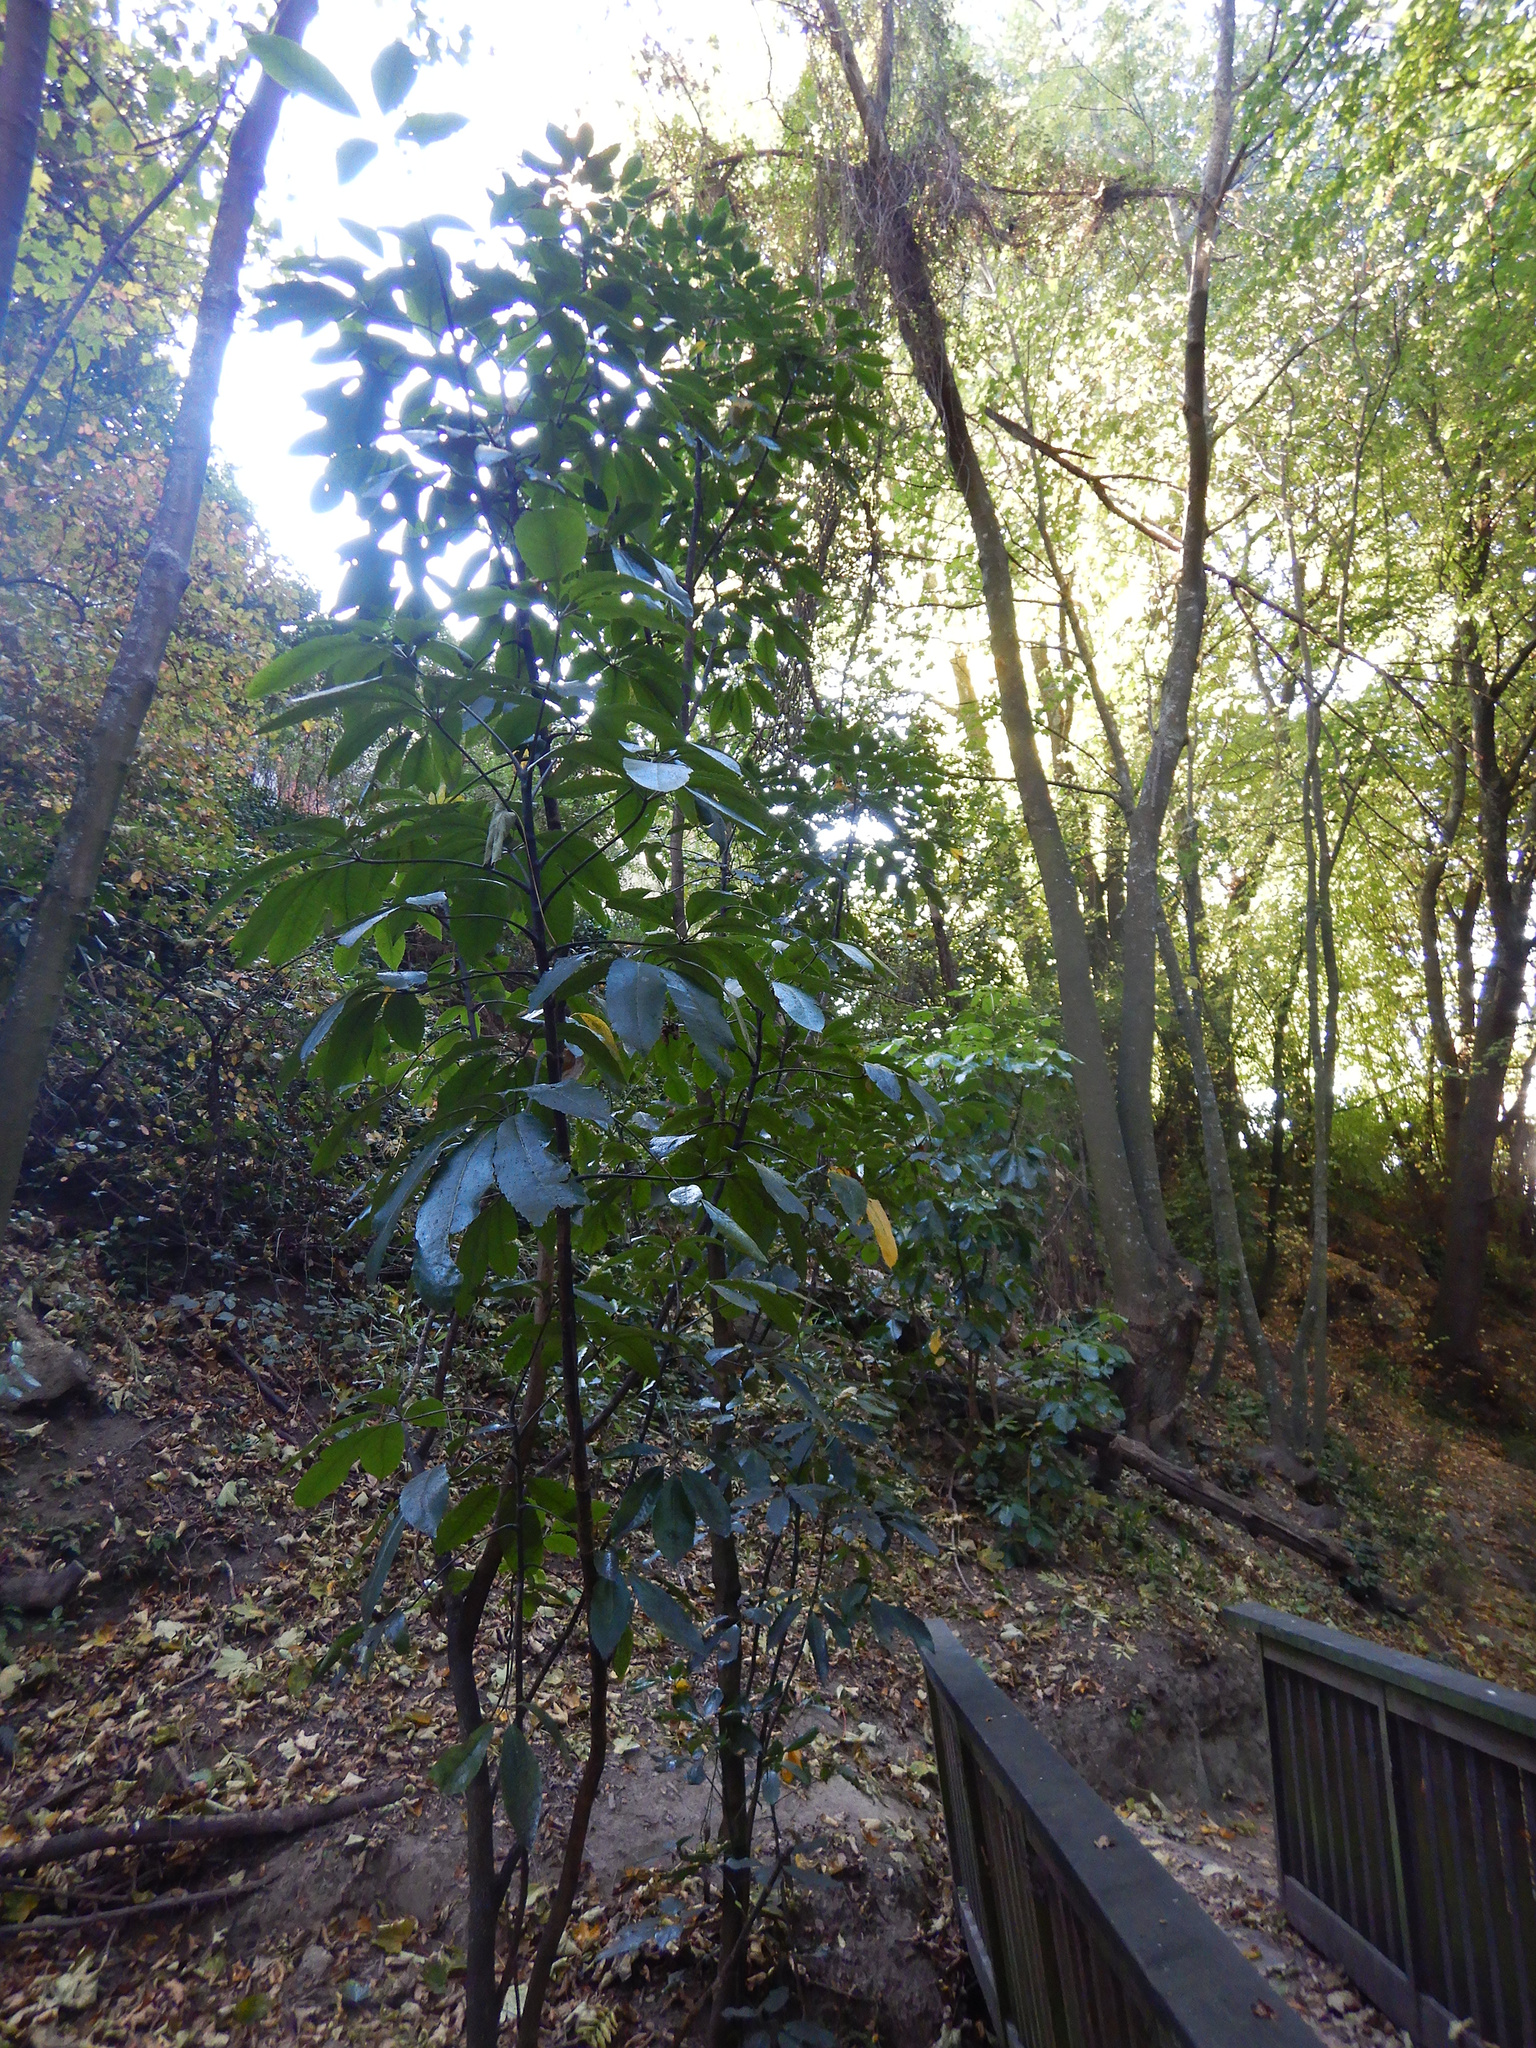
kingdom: Plantae
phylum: Tracheophyta
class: Magnoliopsida
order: Apiales
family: Araliaceae
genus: Neopanax
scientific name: Neopanax arboreus
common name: Five-fingers
